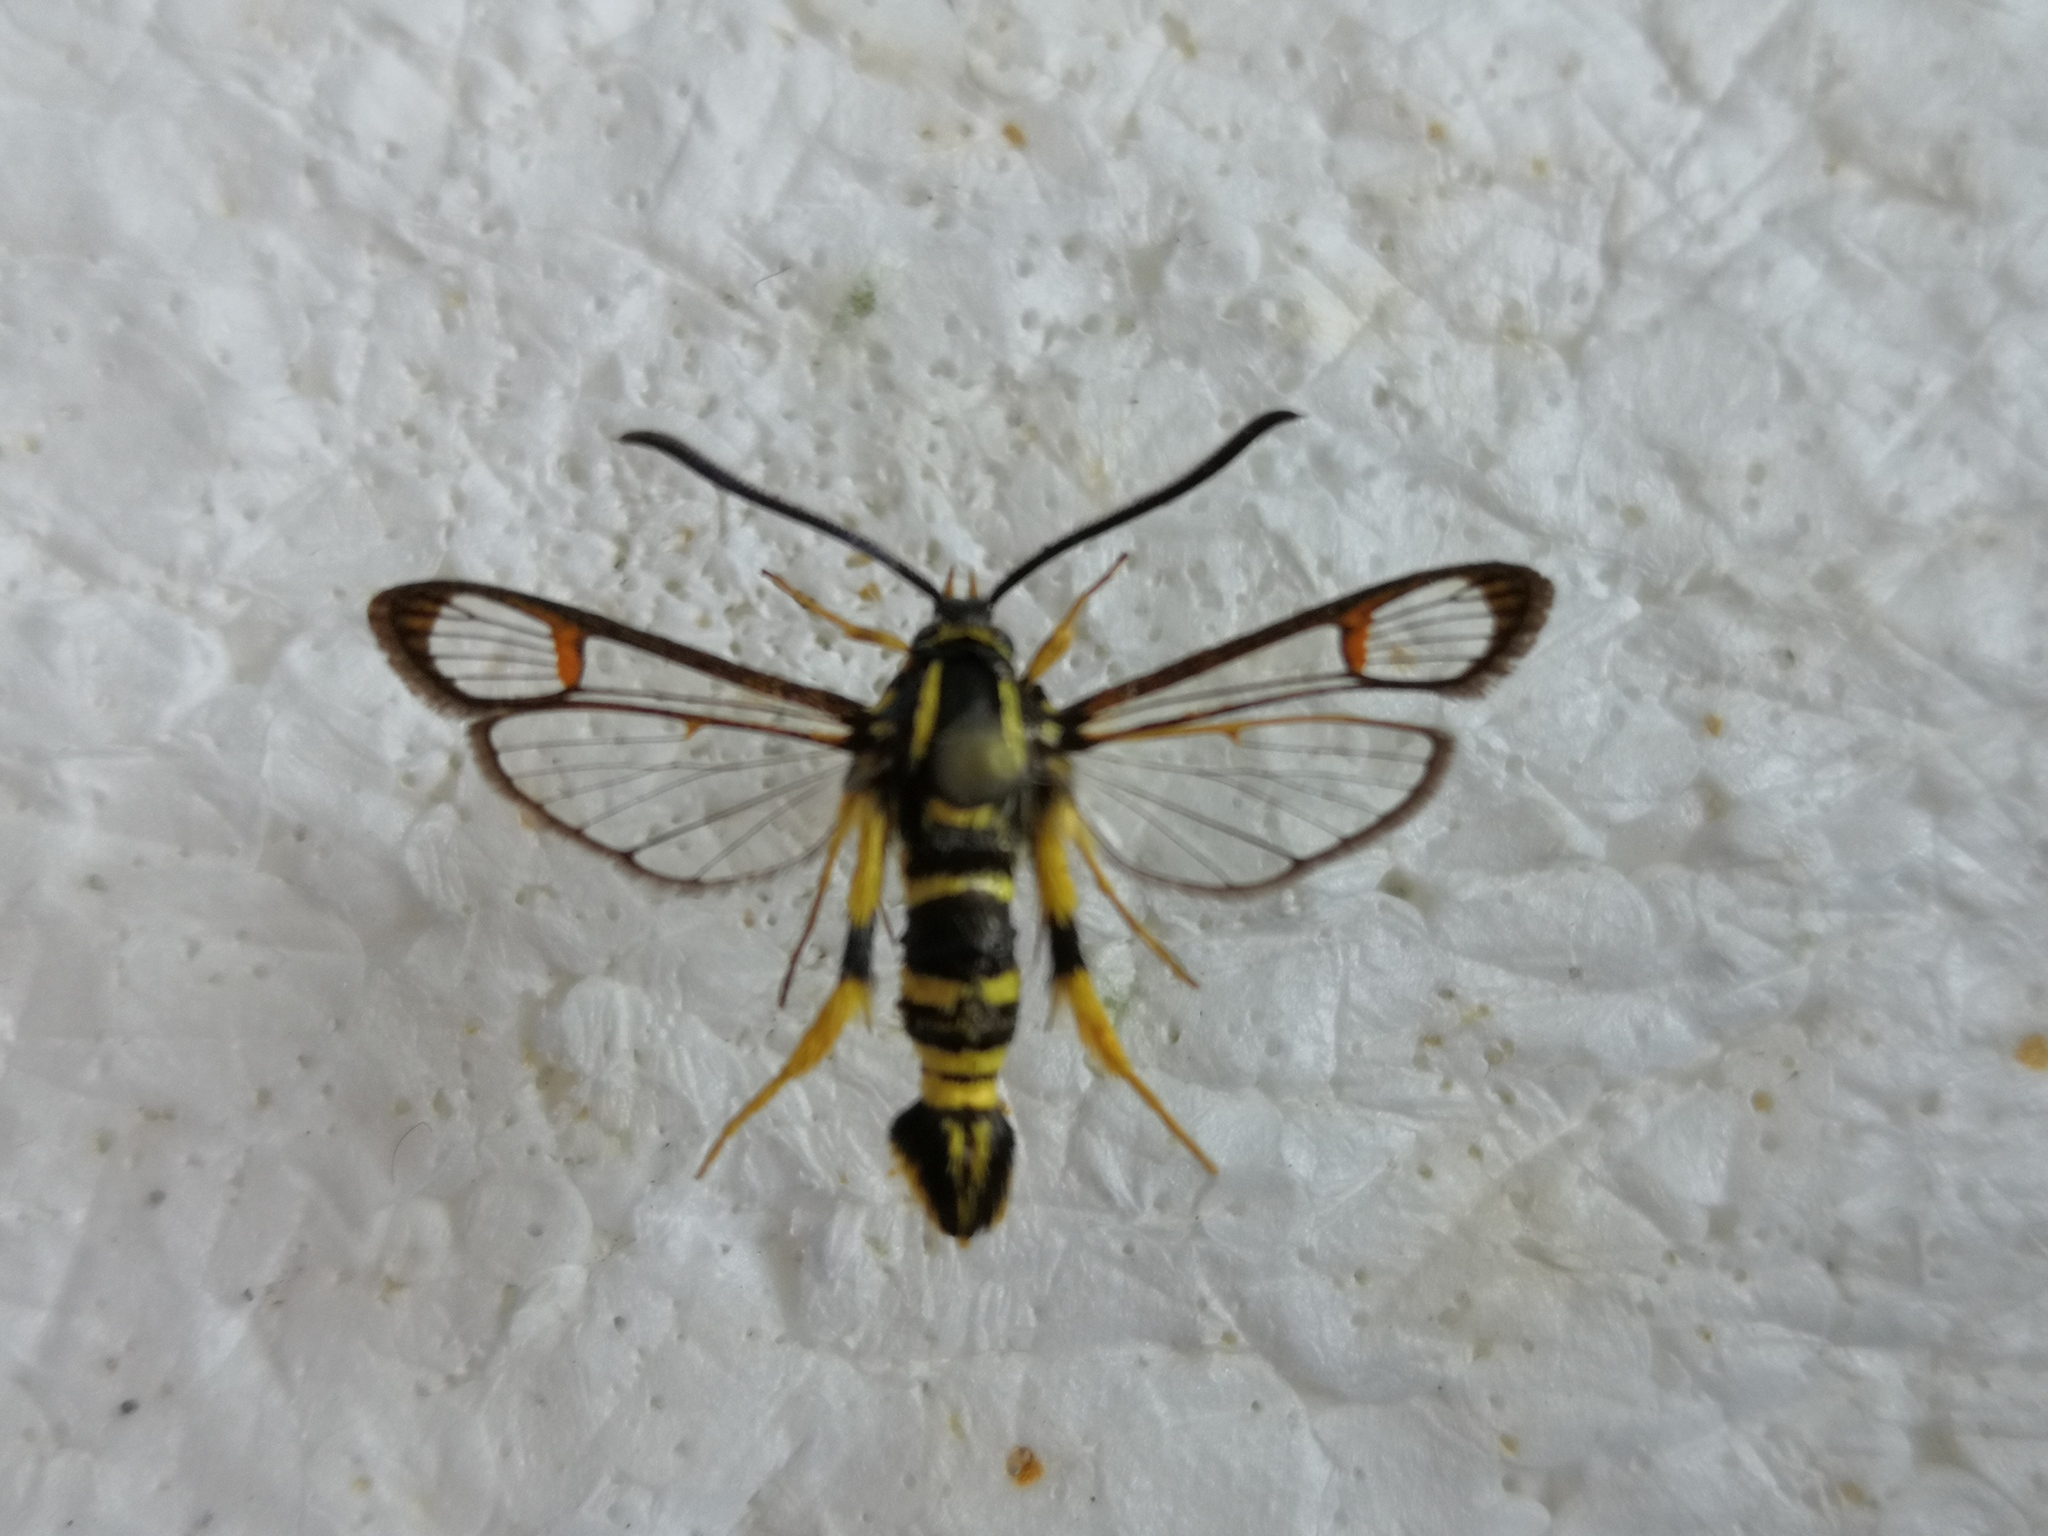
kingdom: Animalia
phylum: Arthropoda
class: Insecta
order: Lepidoptera
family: Sesiidae
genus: Synanthedon
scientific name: Synanthedon vespiformis
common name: Yellow-legged clearwing
